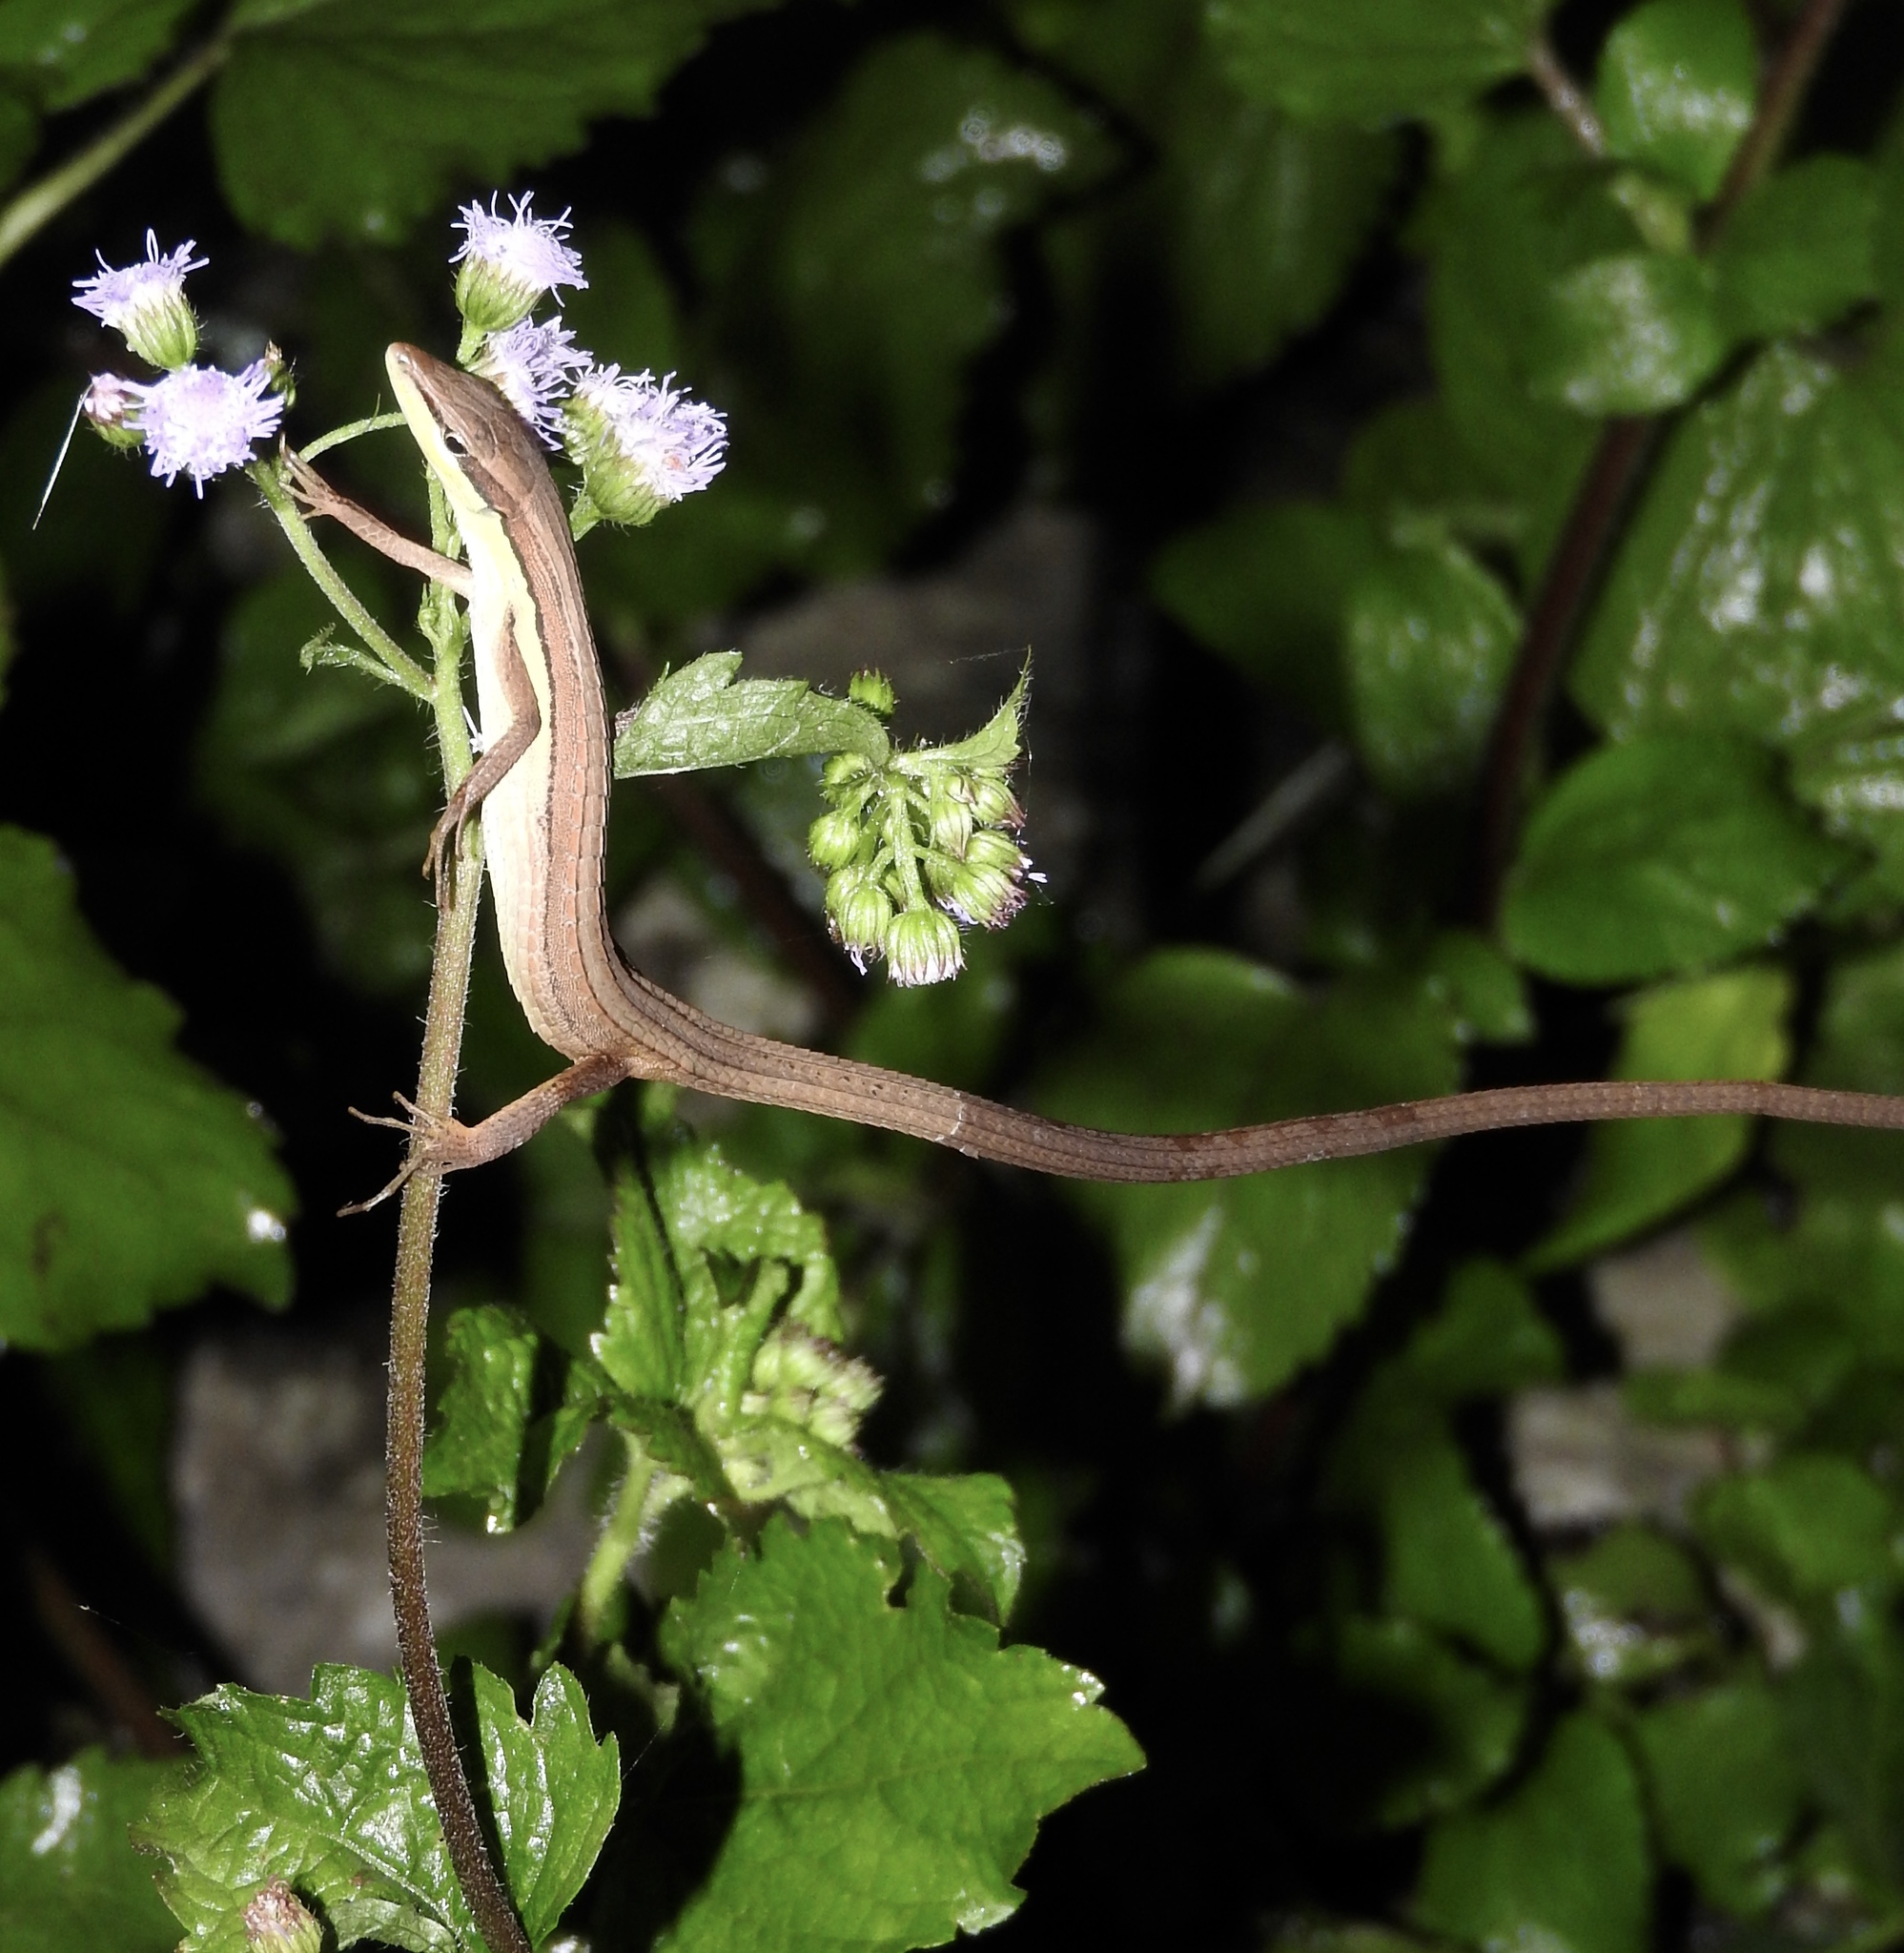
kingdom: Animalia
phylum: Chordata
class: Squamata
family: Lacertidae
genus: Takydromus
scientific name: Takydromus sexlineatus
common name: Asian grass lizard
